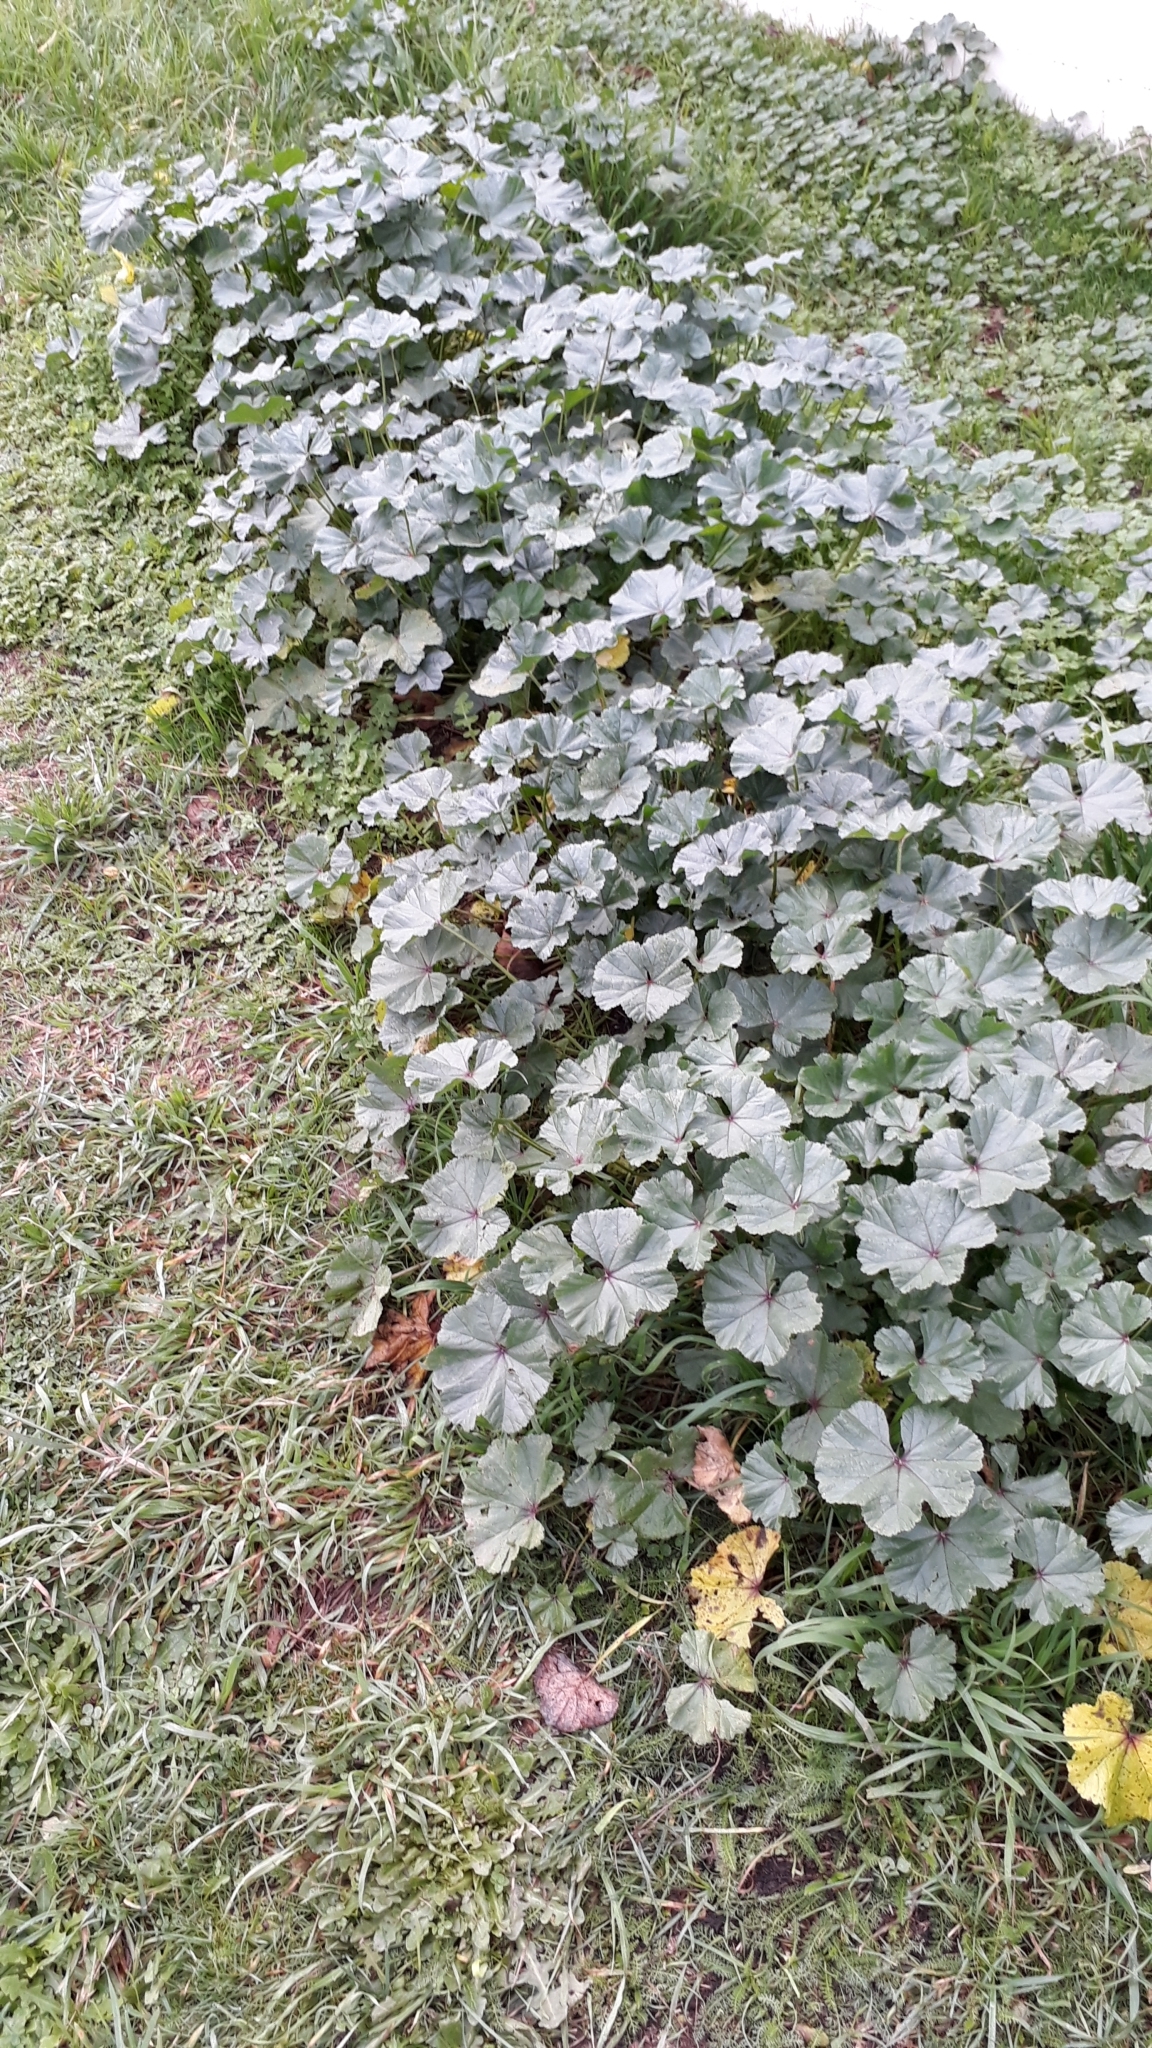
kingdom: Plantae
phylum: Tracheophyta
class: Magnoliopsida
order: Malvales
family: Malvaceae
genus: Malva
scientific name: Malva sylvestris
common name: Common mallow
